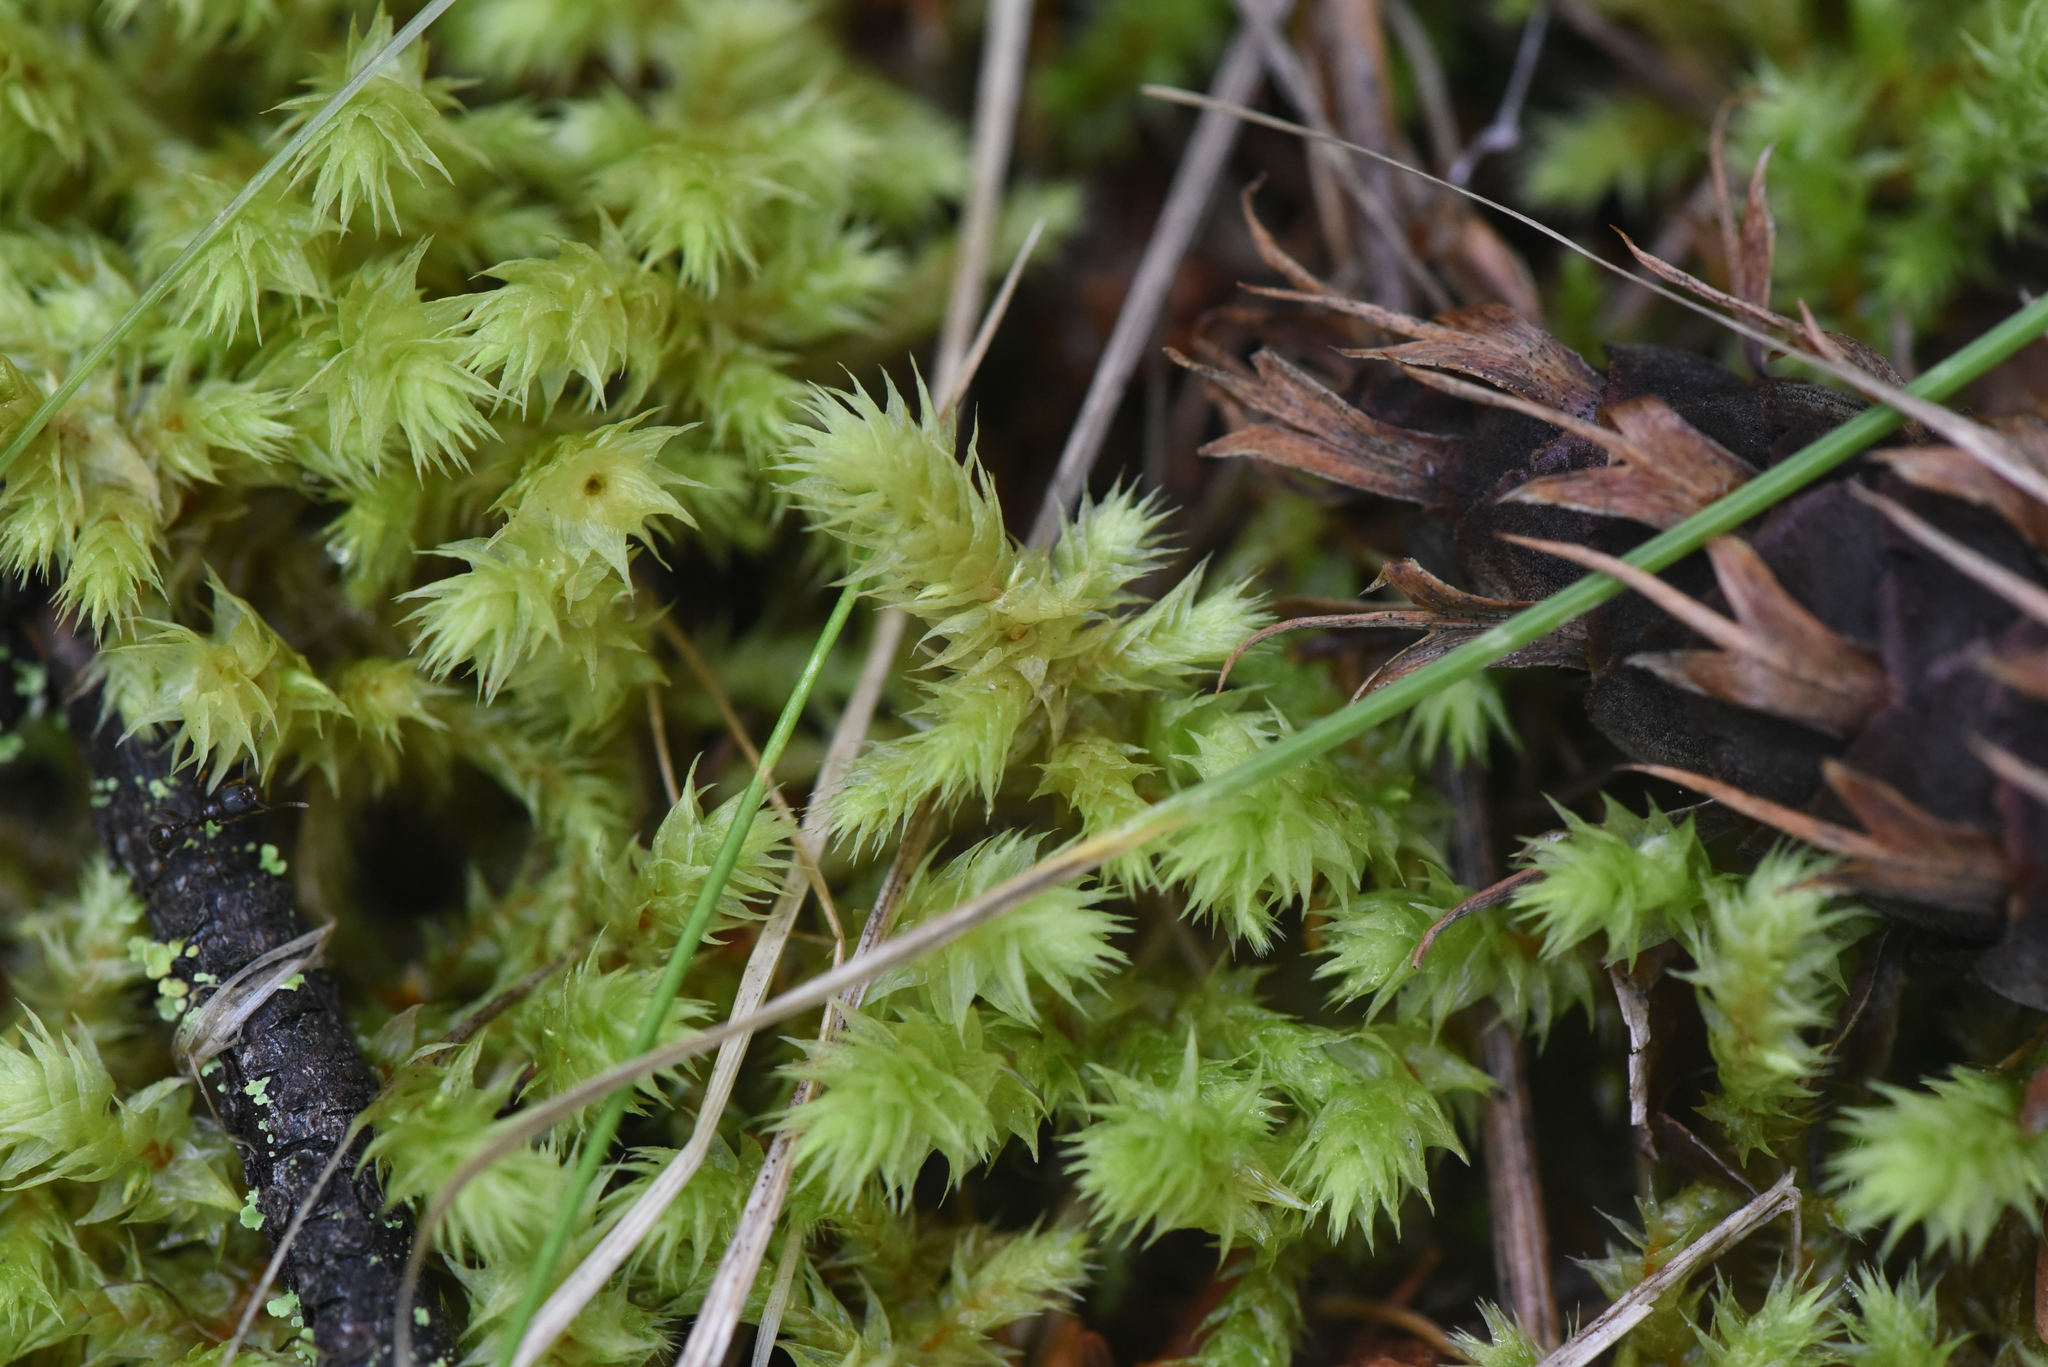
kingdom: Plantae
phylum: Bryophyta
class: Bryopsida
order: Hypnales
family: Hylocomiaceae
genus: Hylocomiadelphus
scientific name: Hylocomiadelphus triquetrus
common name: Rough goose neck moss
